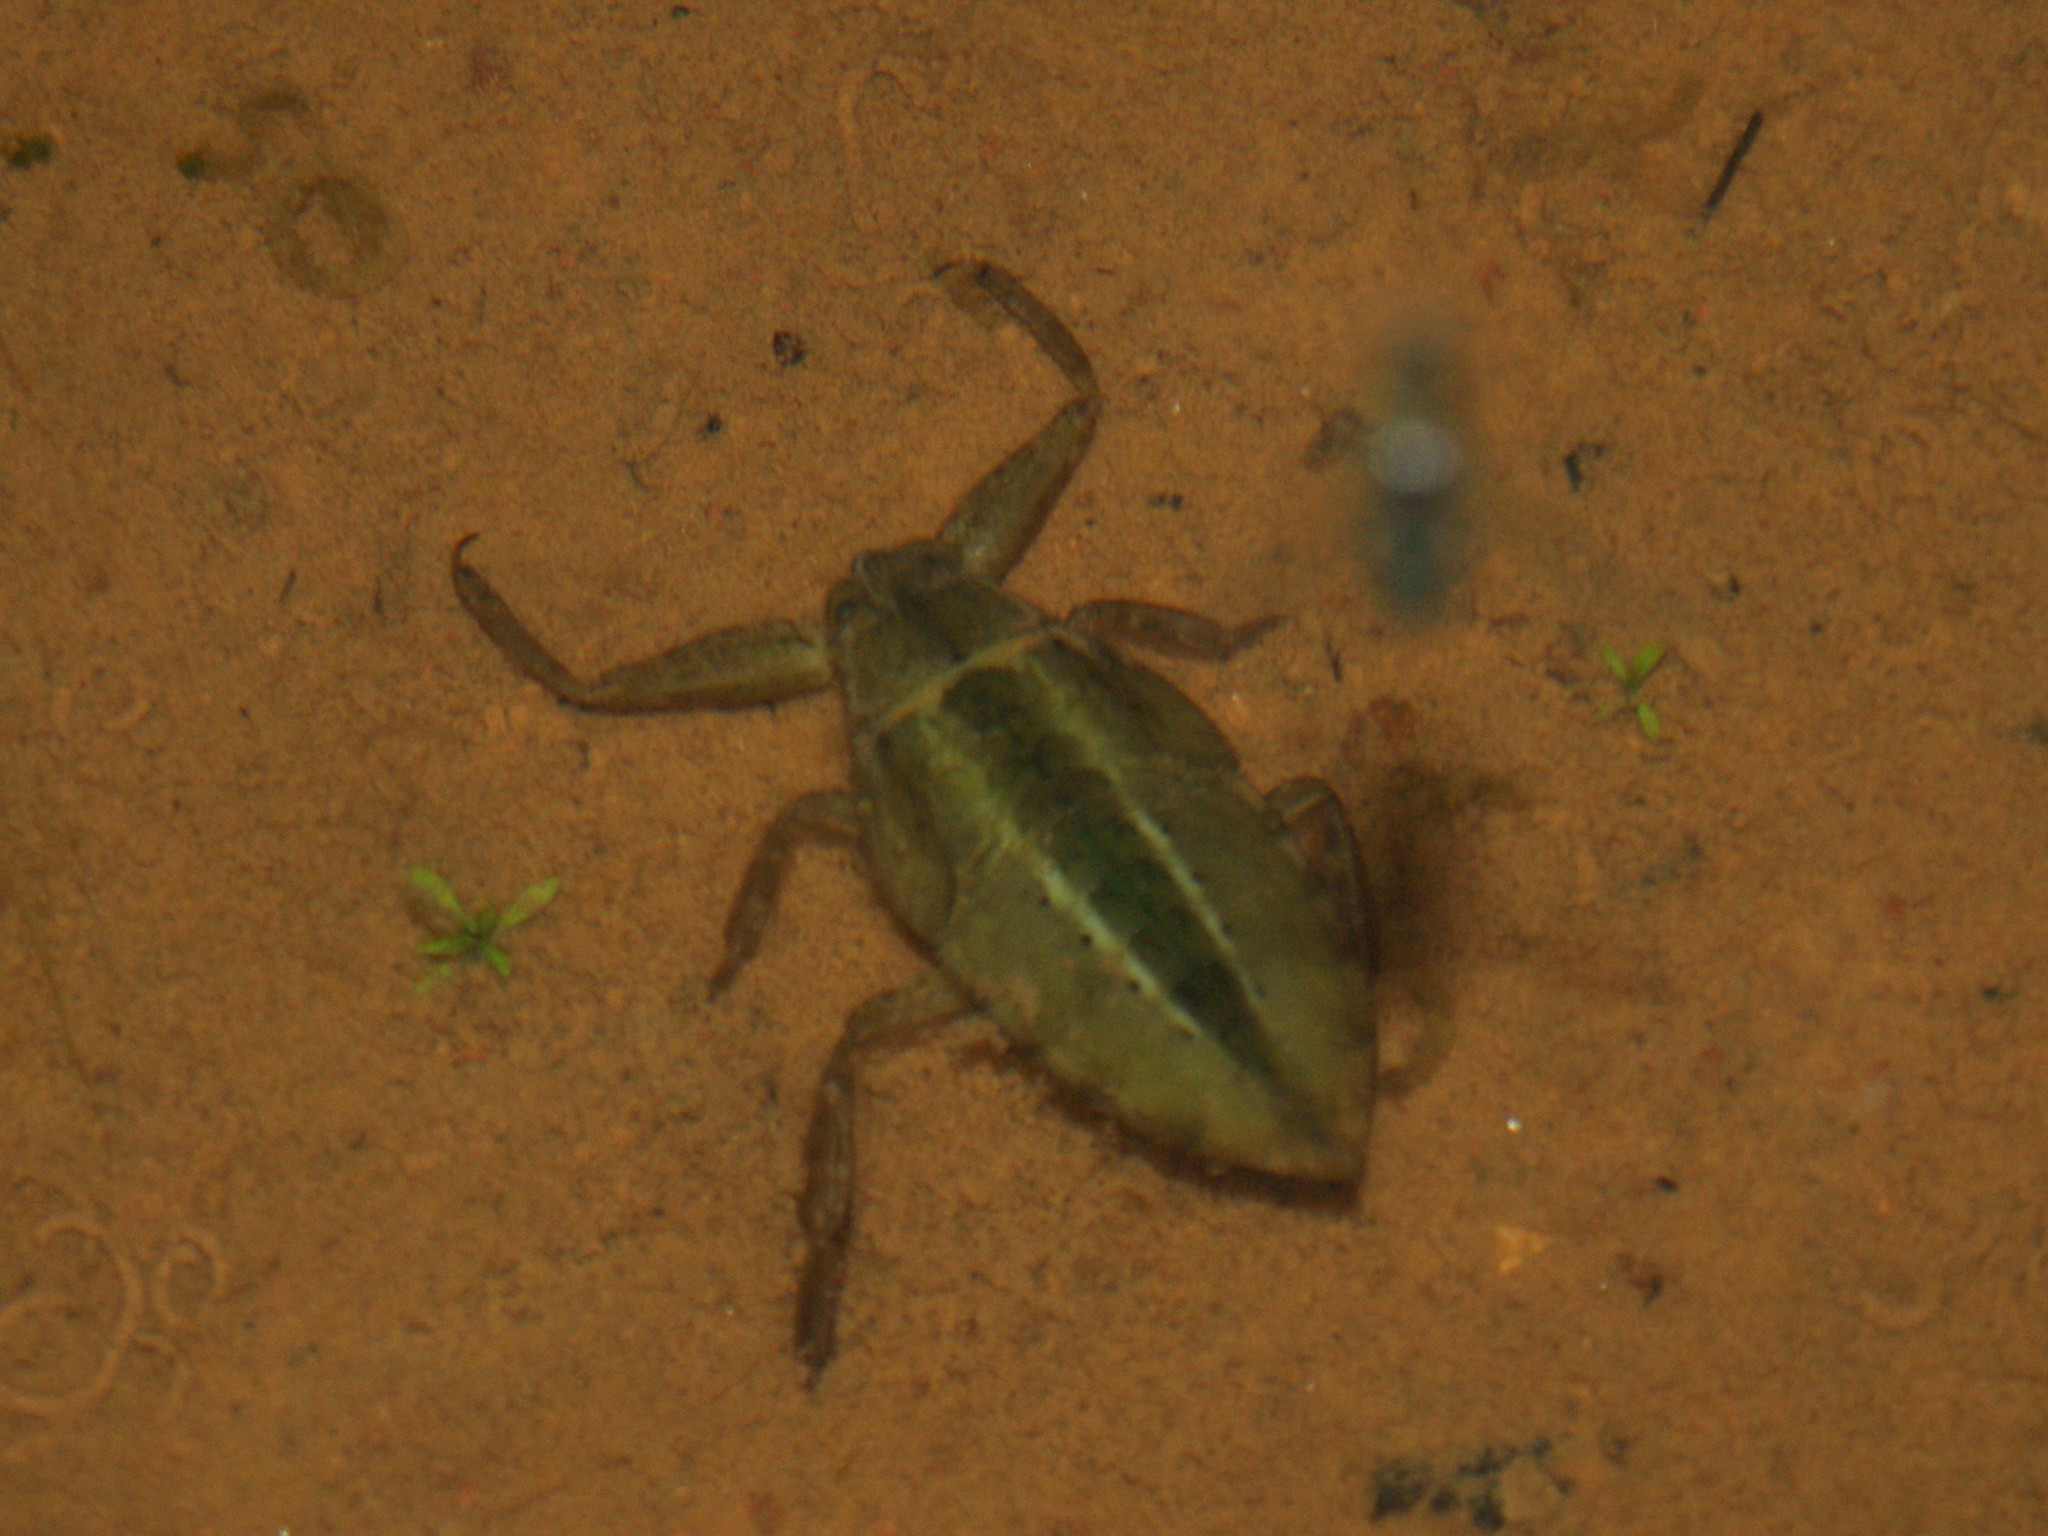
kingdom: Animalia
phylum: Arthropoda
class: Insecta
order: Hemiptera
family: Belostomatidae
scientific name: Belostomatidae
